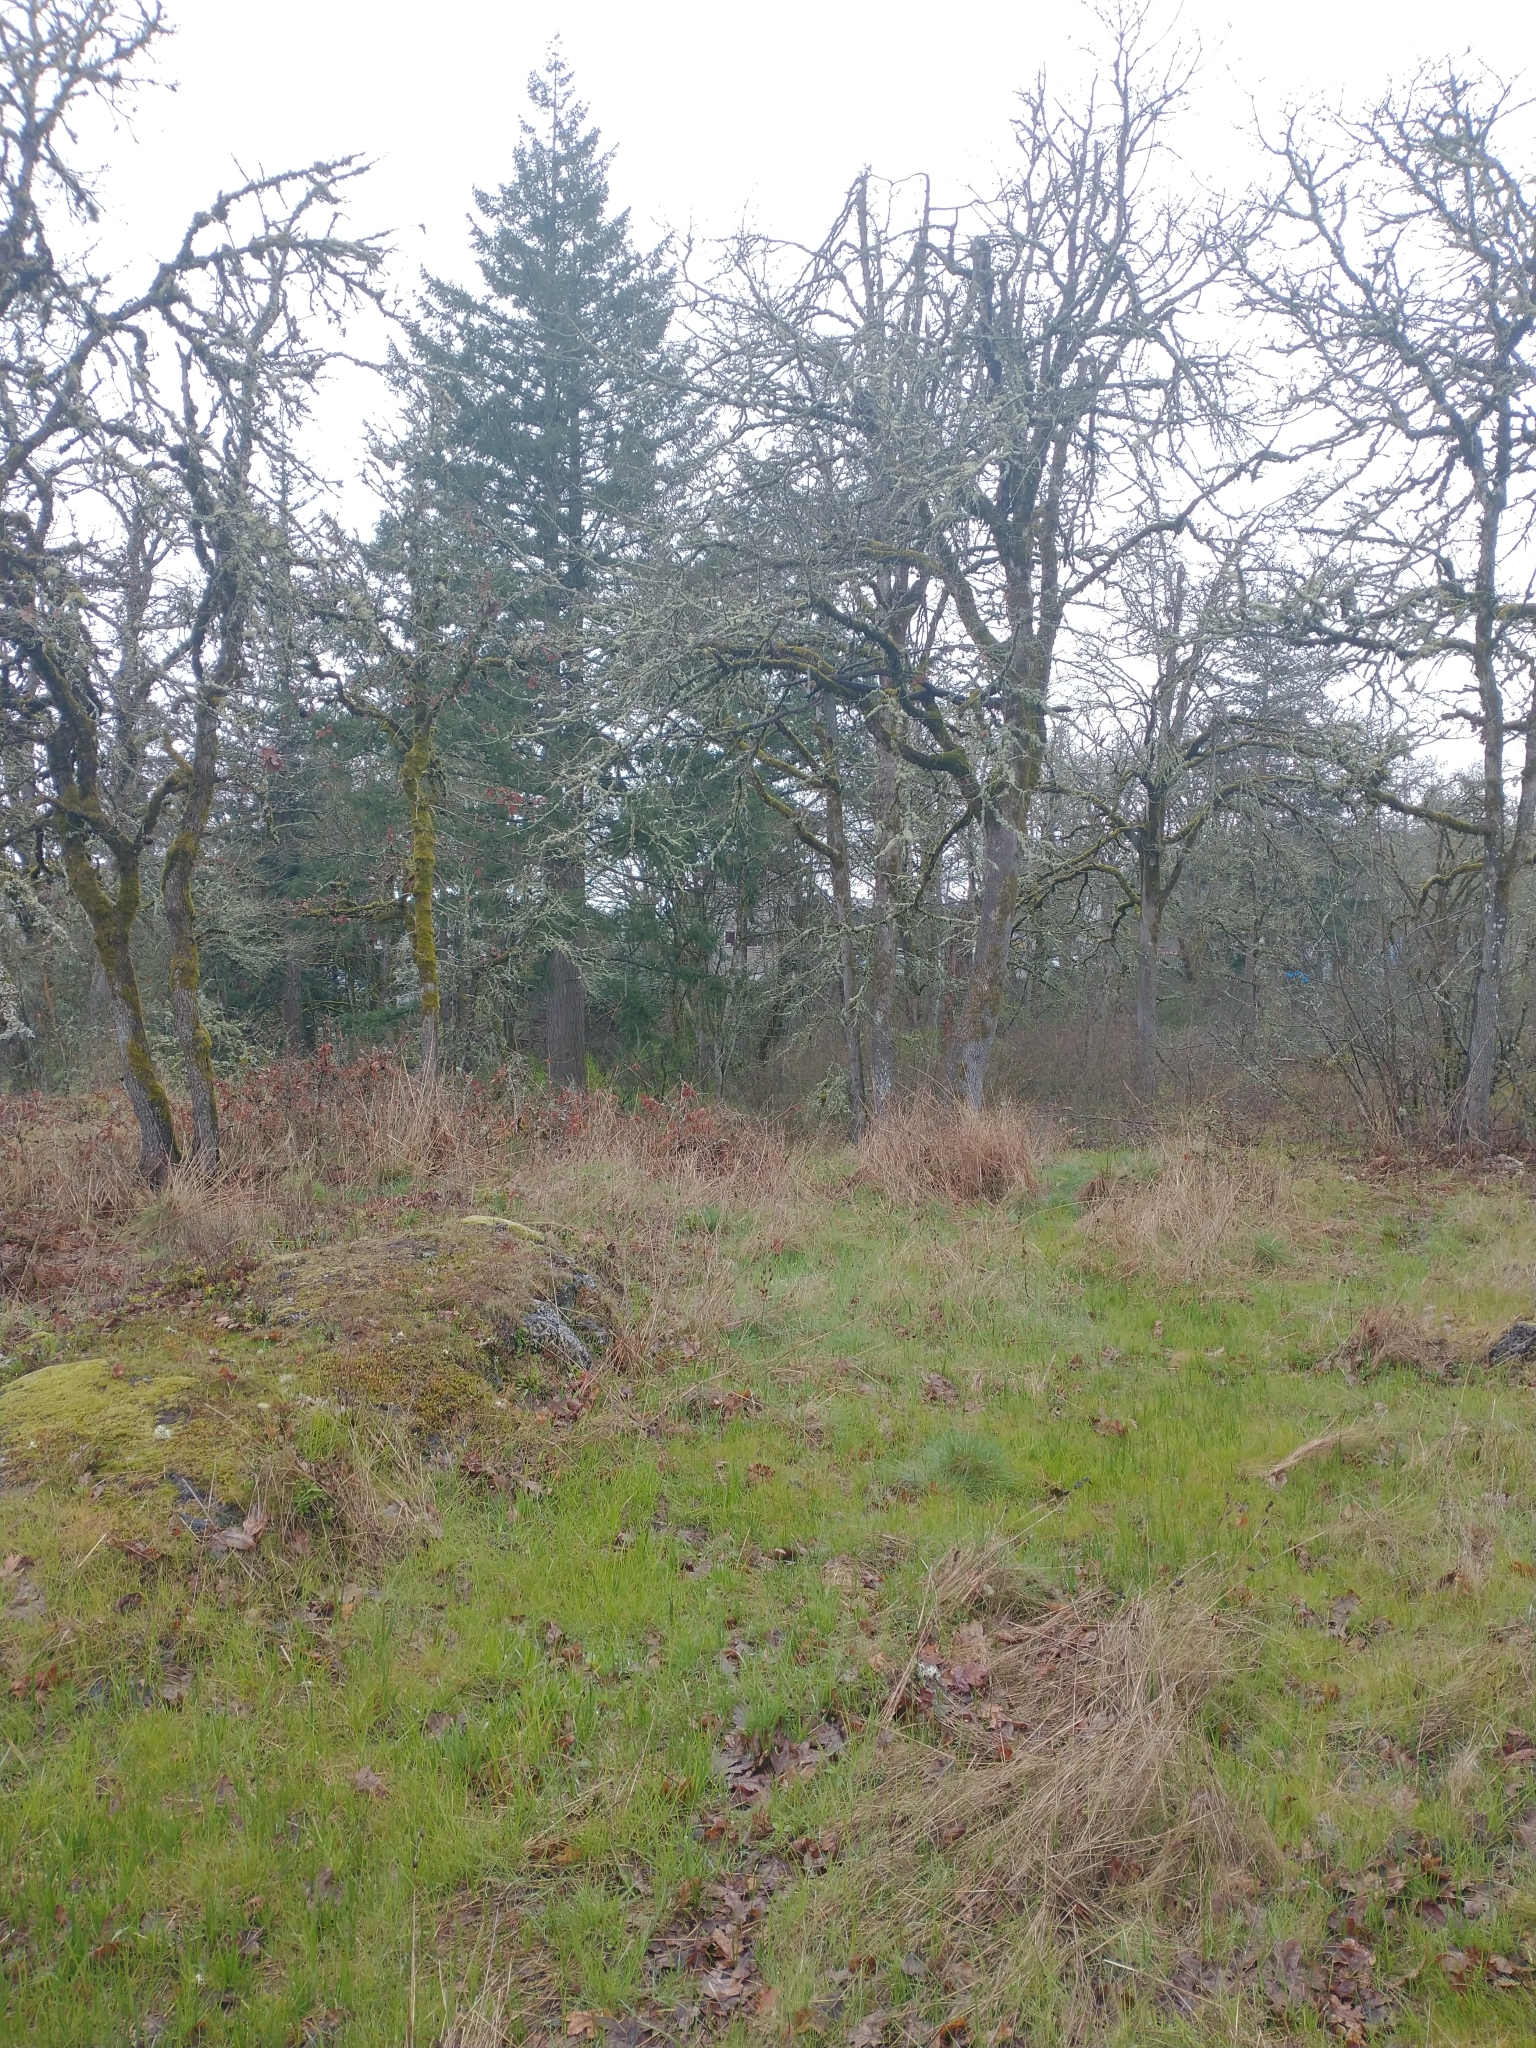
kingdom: Plantae
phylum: Tracheophyta
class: Magnoliopsida
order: Fagales
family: Fagaceae
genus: Quercus
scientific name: Quercus garryana
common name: Garry oak
